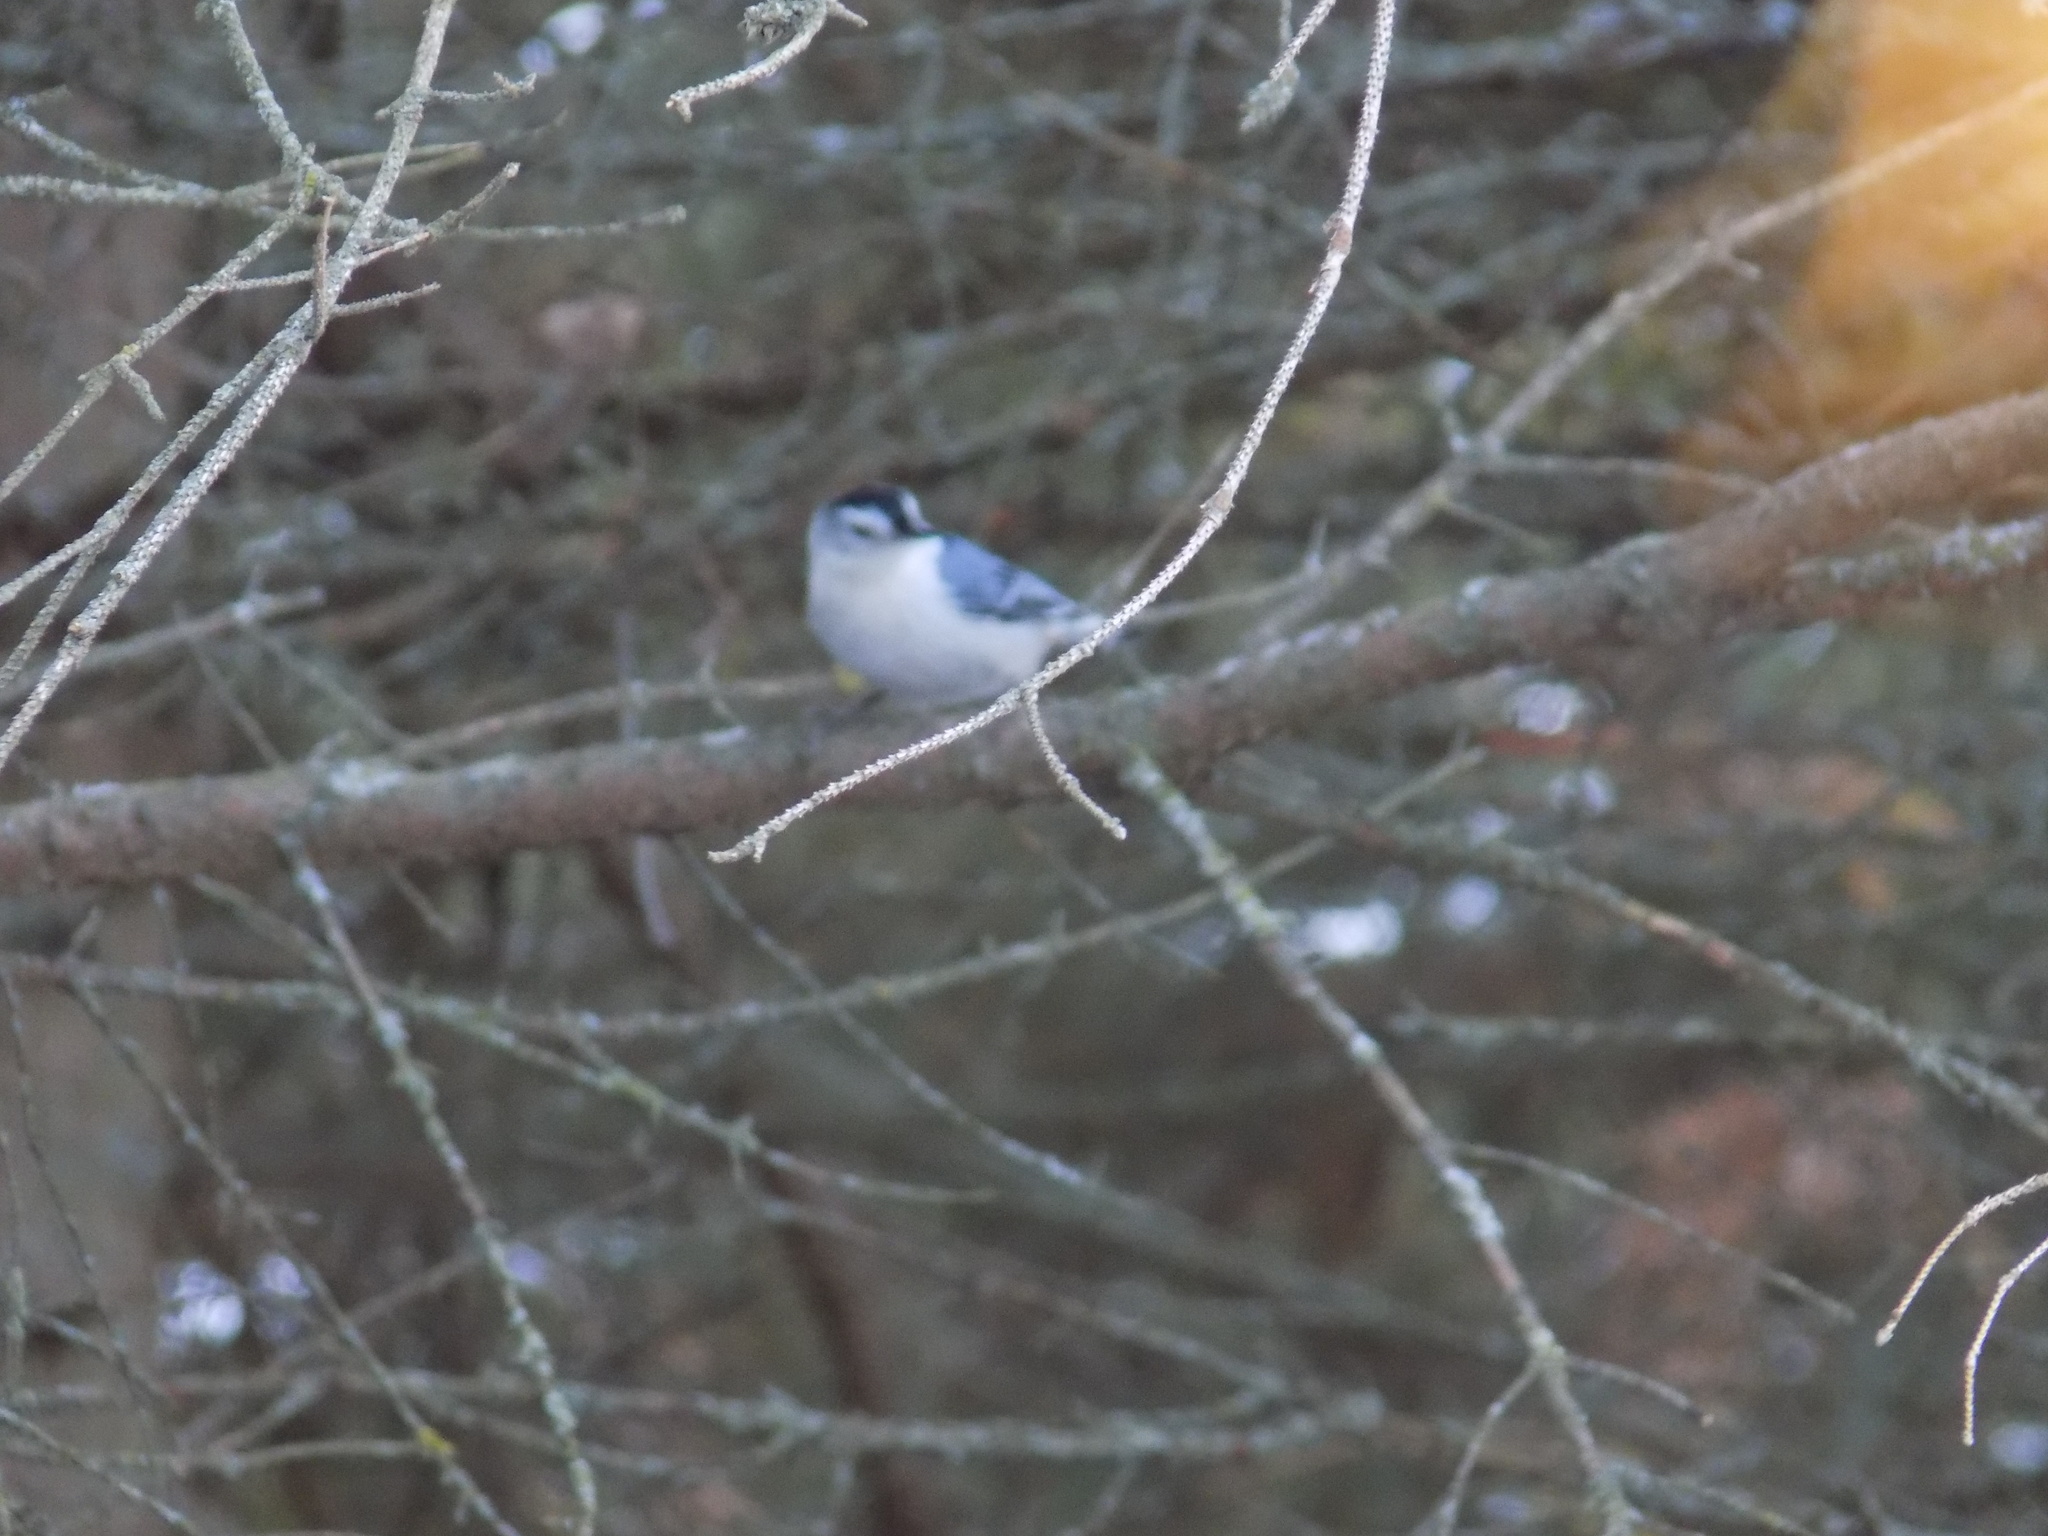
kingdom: Animalia
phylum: Chordata
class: Aves
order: Passeriformes
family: Sittidae
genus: Sitta
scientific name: Sitta carolinensis
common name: White-breasted nuthatch
